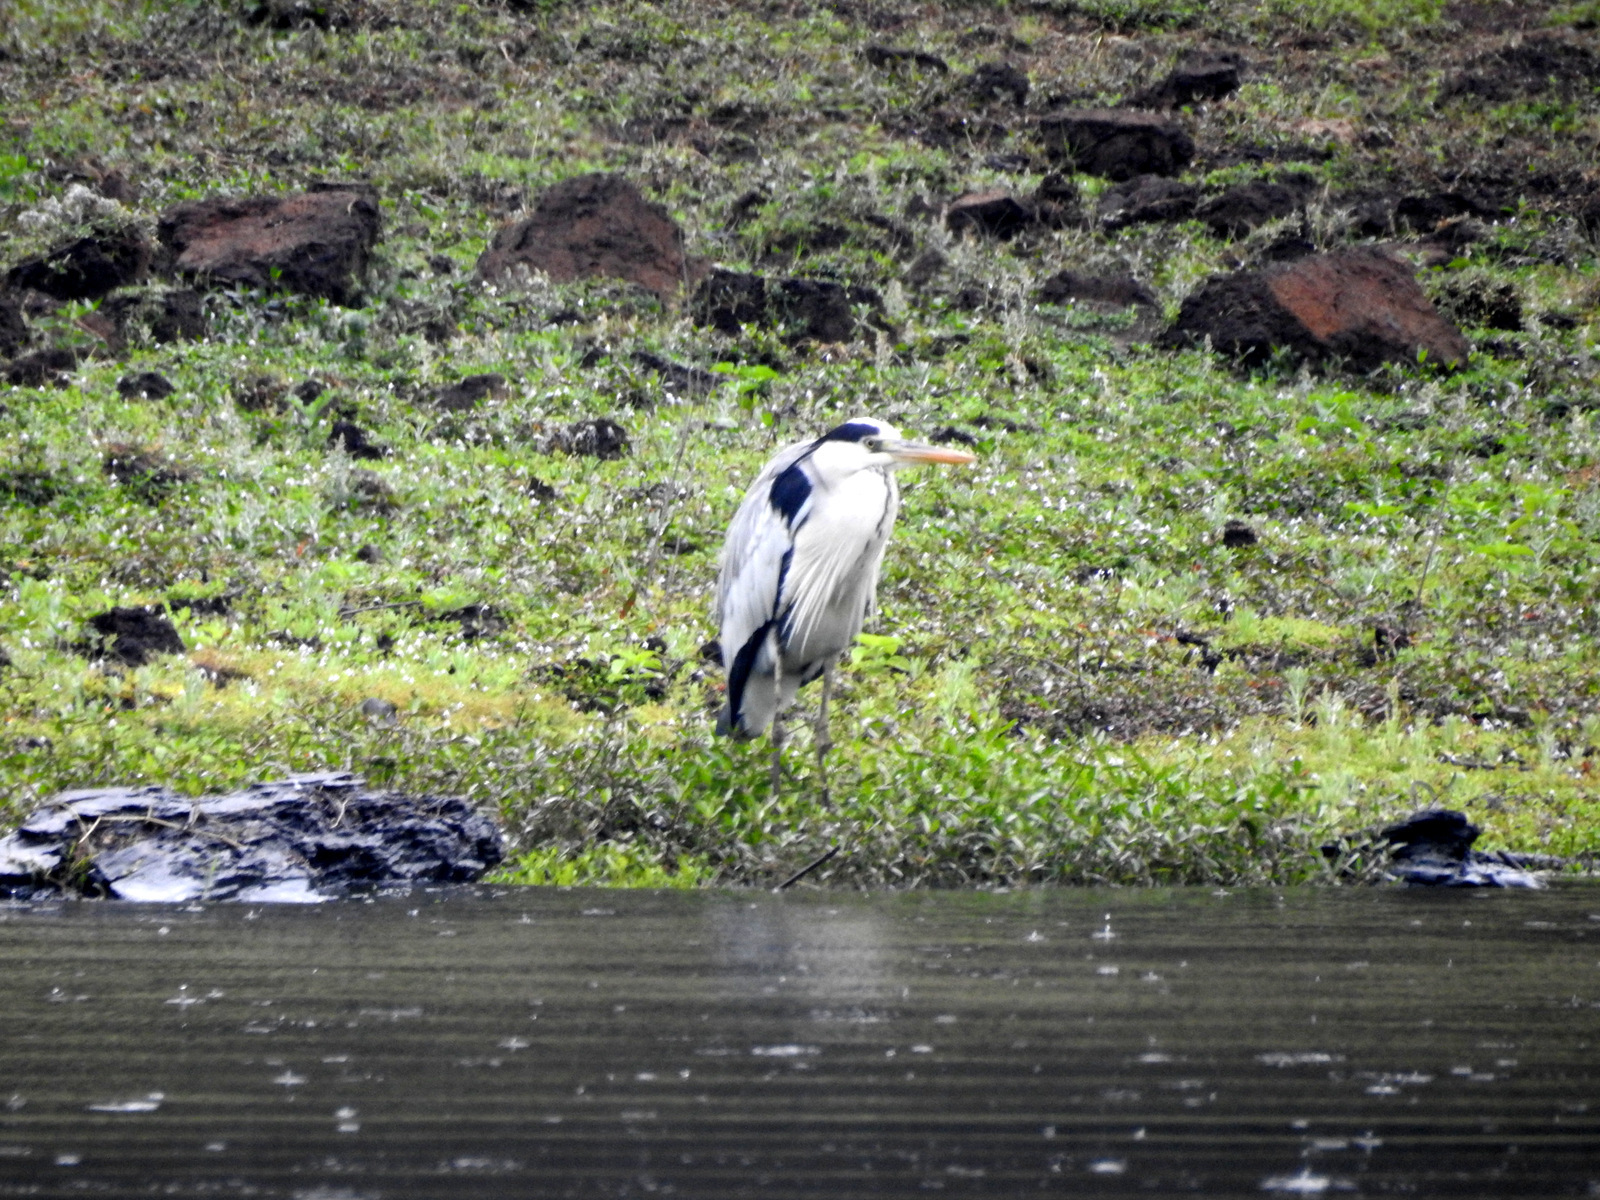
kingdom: Animalia
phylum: Chordata
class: Aves
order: Pelecaniformes
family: Ardeidae
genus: Ardea
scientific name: Ardea cinerea
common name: Grey heron
